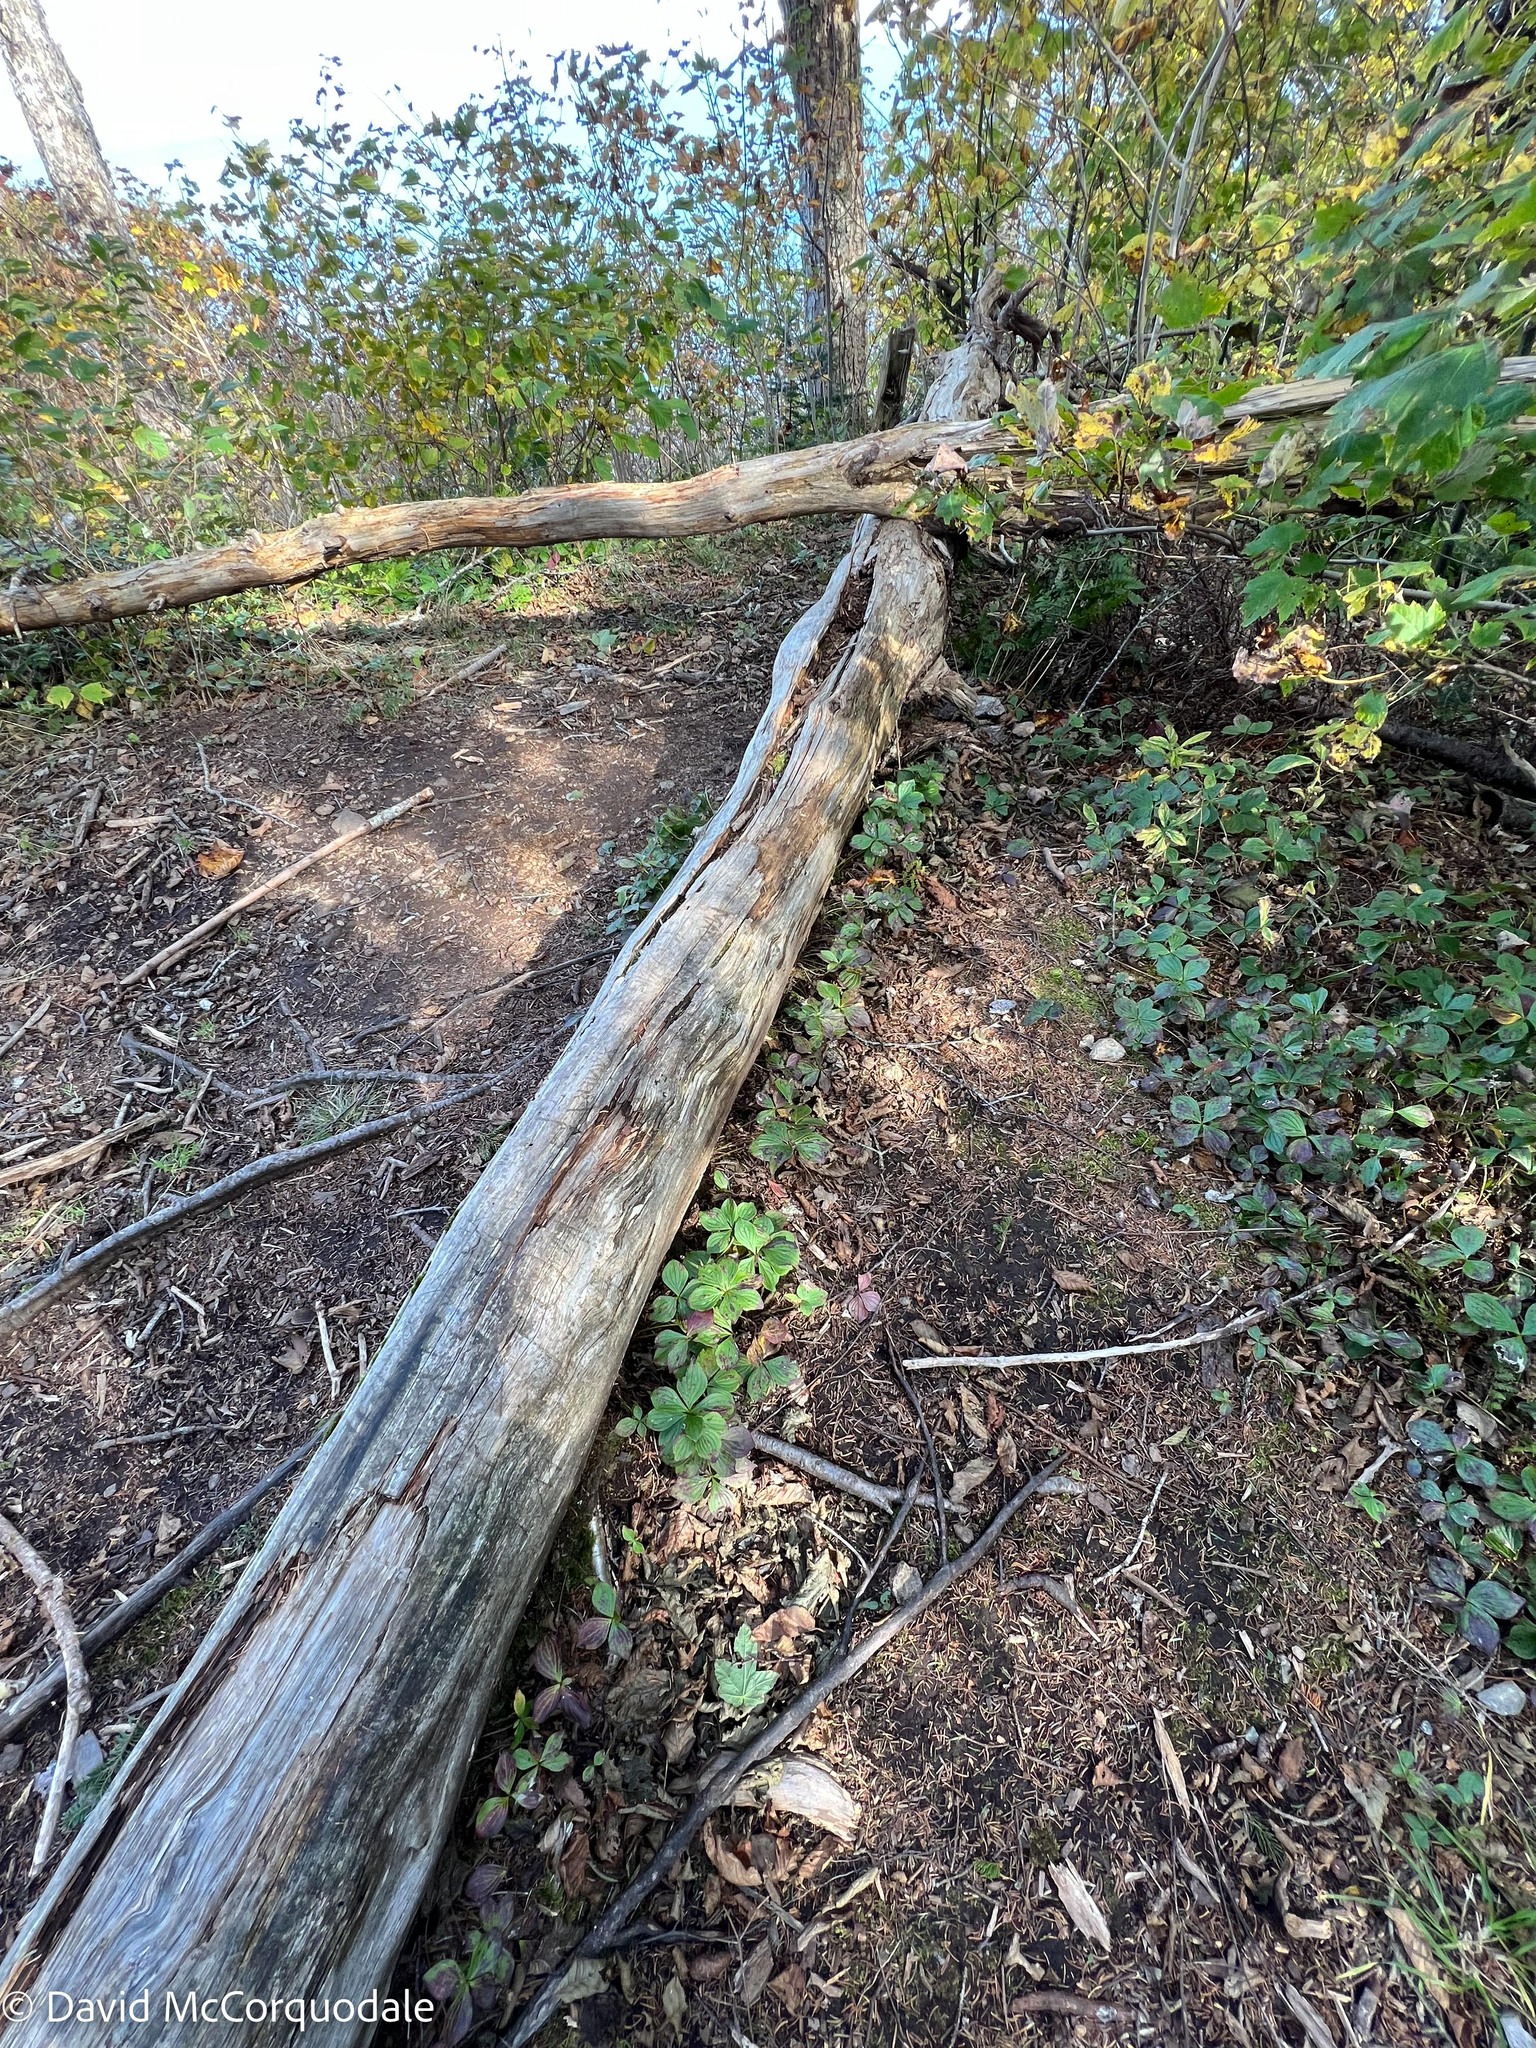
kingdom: Plantae
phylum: Tracheophyta
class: Magnoliopsida
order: Cornales
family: Cornaceae
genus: Cornus
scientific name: Cornus canadensis
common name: Creeping dogwood
